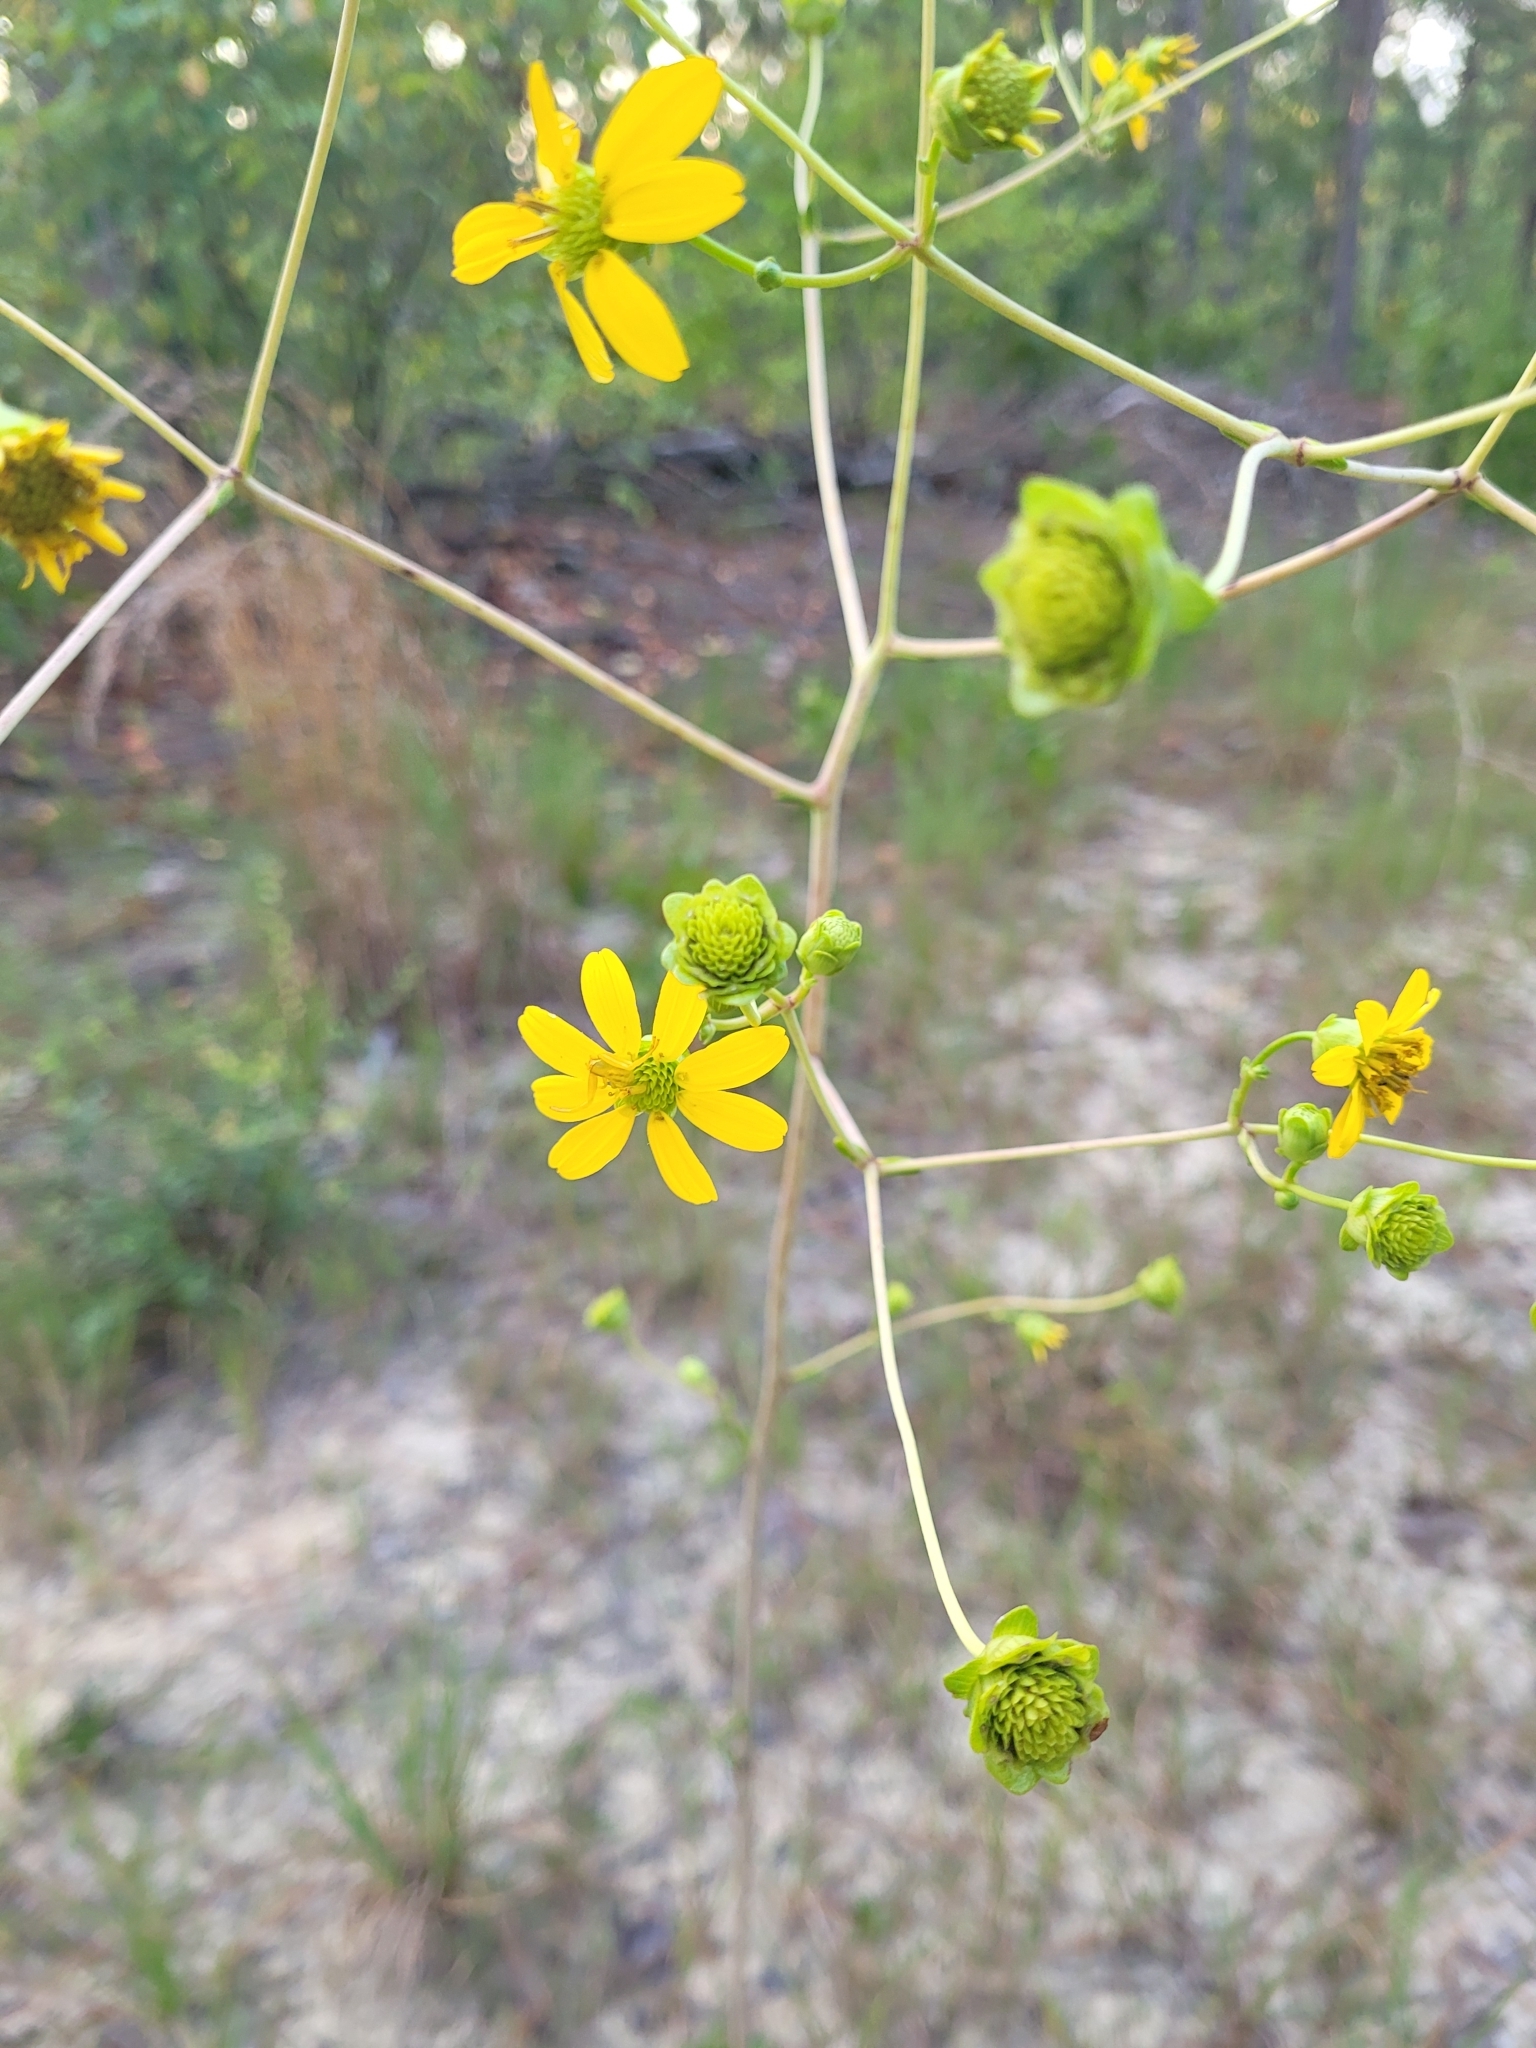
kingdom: Plantae
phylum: Tracheophyta
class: Magnoliopsida
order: Asterales
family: Asteraceae
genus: Silphium
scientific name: Silphium compositum
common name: Lesser basal-leaf rosinweed
